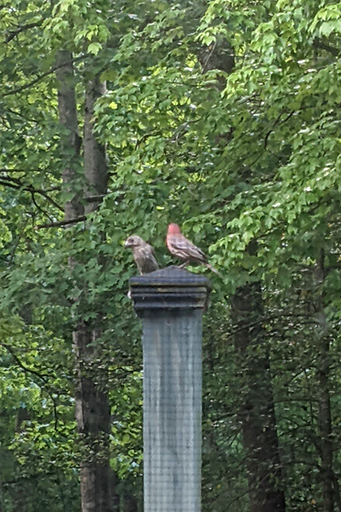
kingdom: Animalia
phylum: Chordata
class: Aves
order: Passeriformes
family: Fringillidae
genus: Haemorhous
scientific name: Haemorhous mexicanus
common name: House finch
